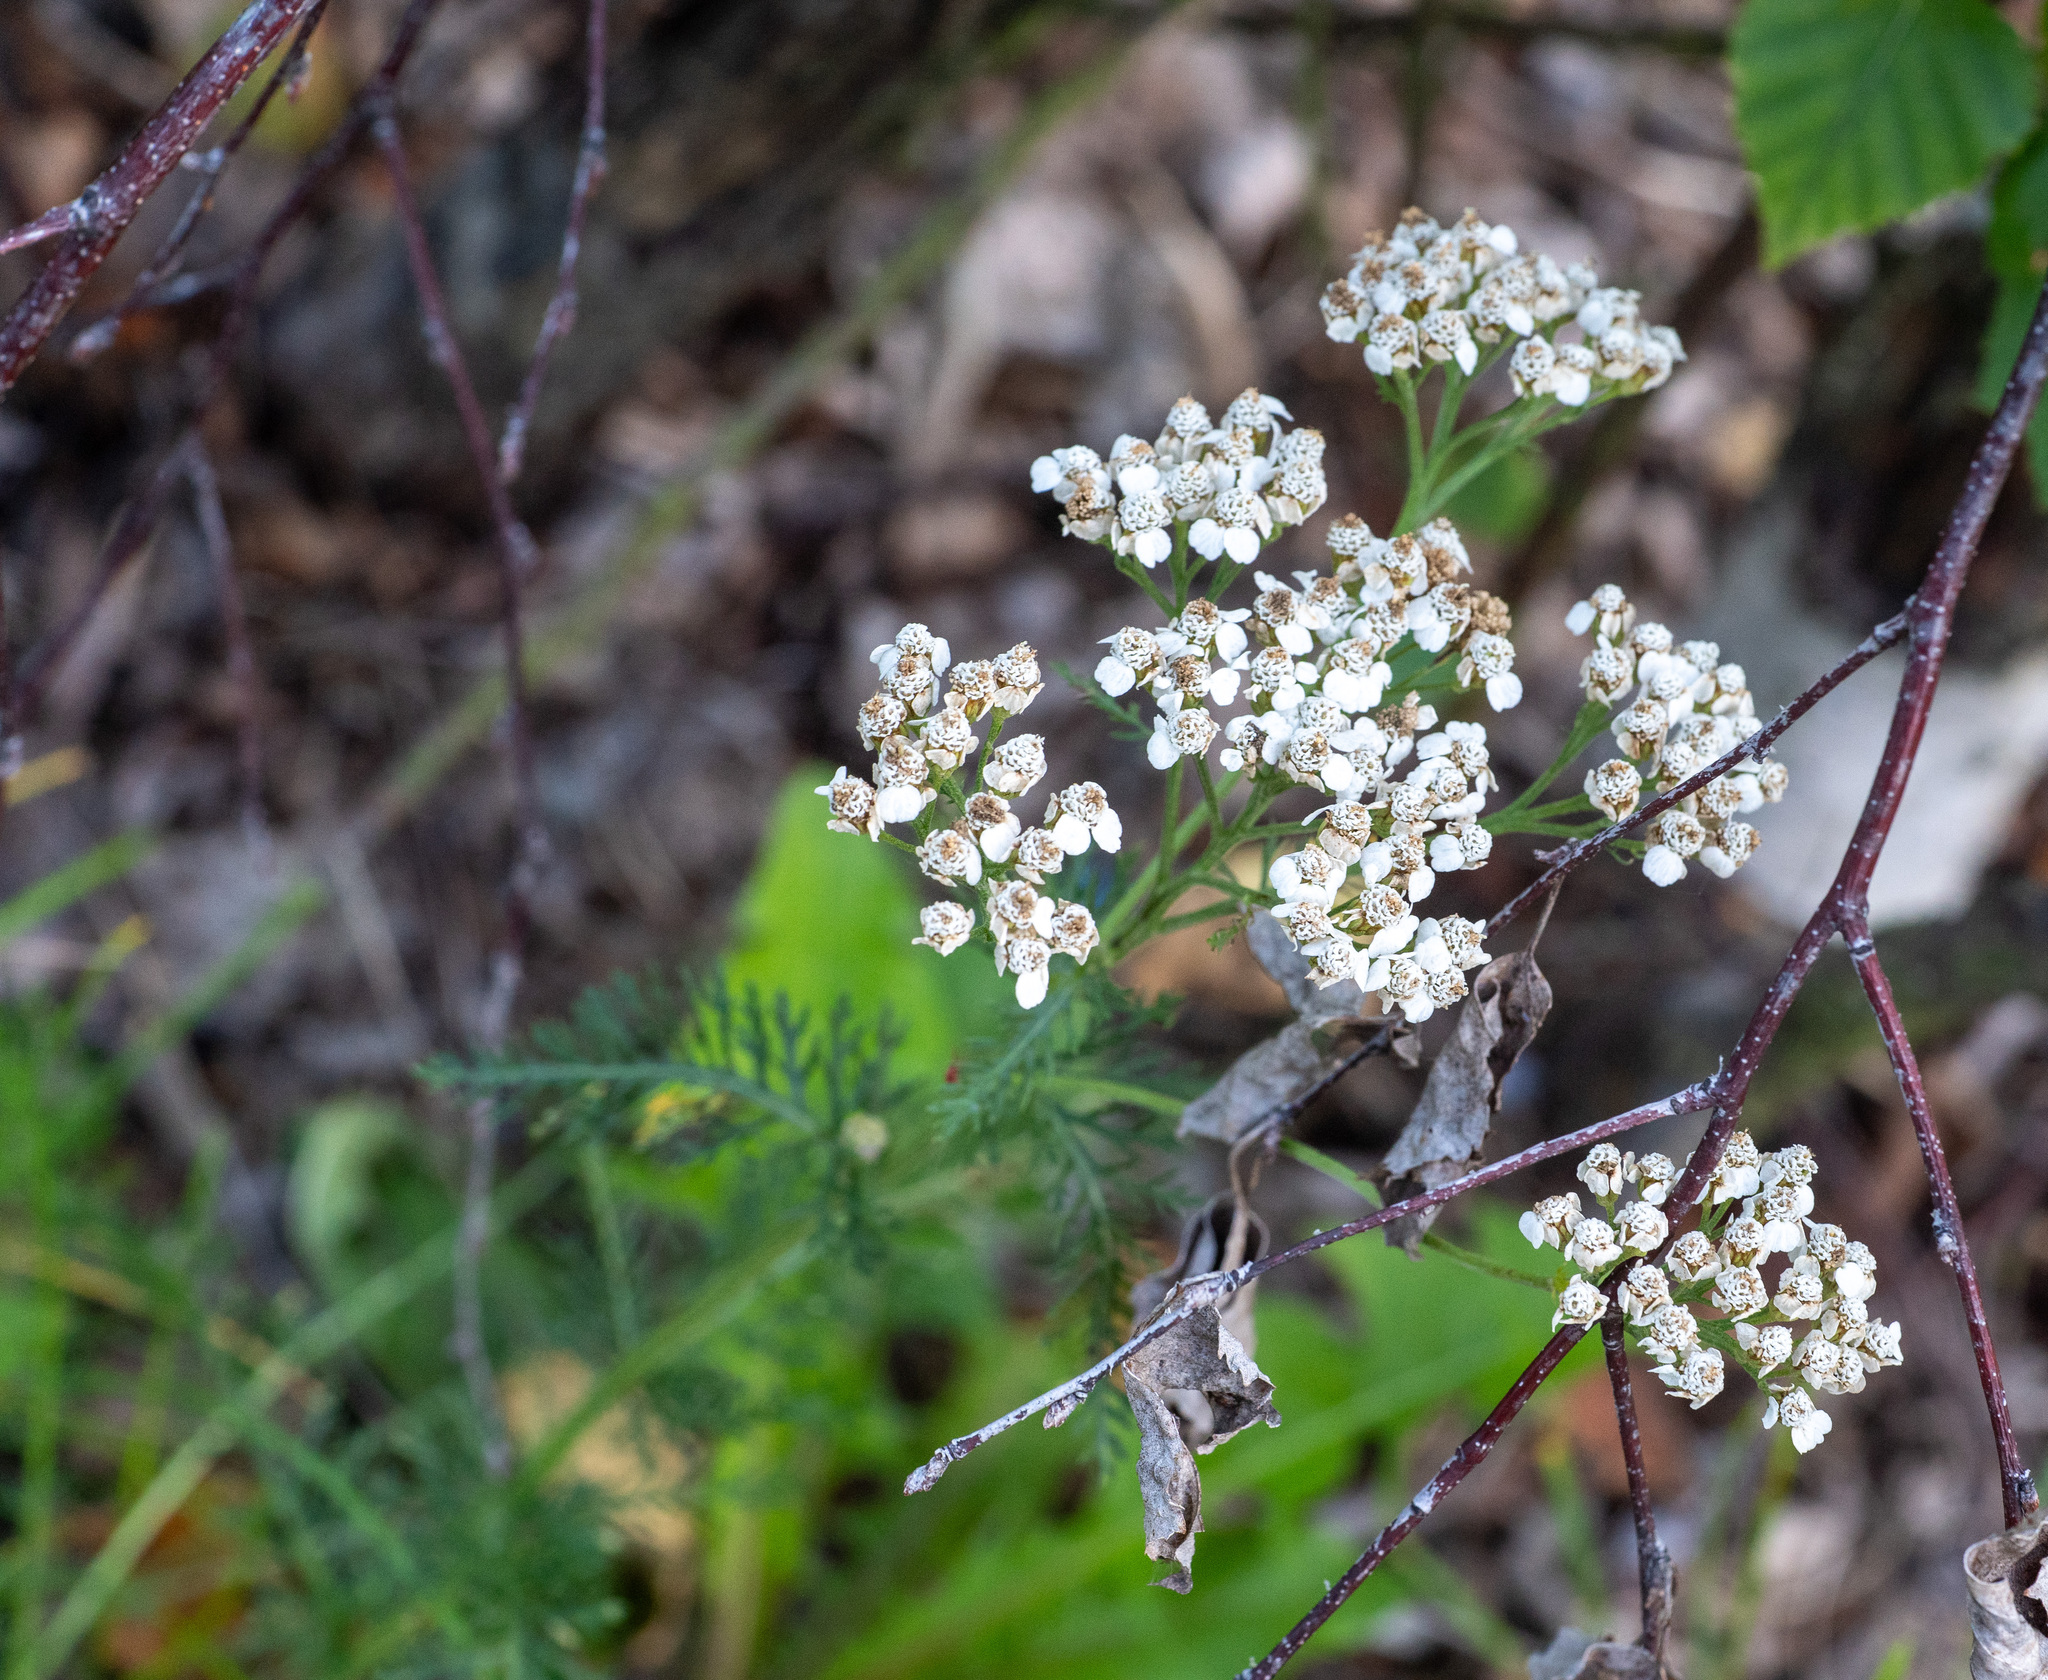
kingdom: Plantae
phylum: Tracheophyta
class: Magnoliopsida
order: Asterales
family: Asteraceae
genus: Achillea
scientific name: Achillea millefolium
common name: Yarrow
